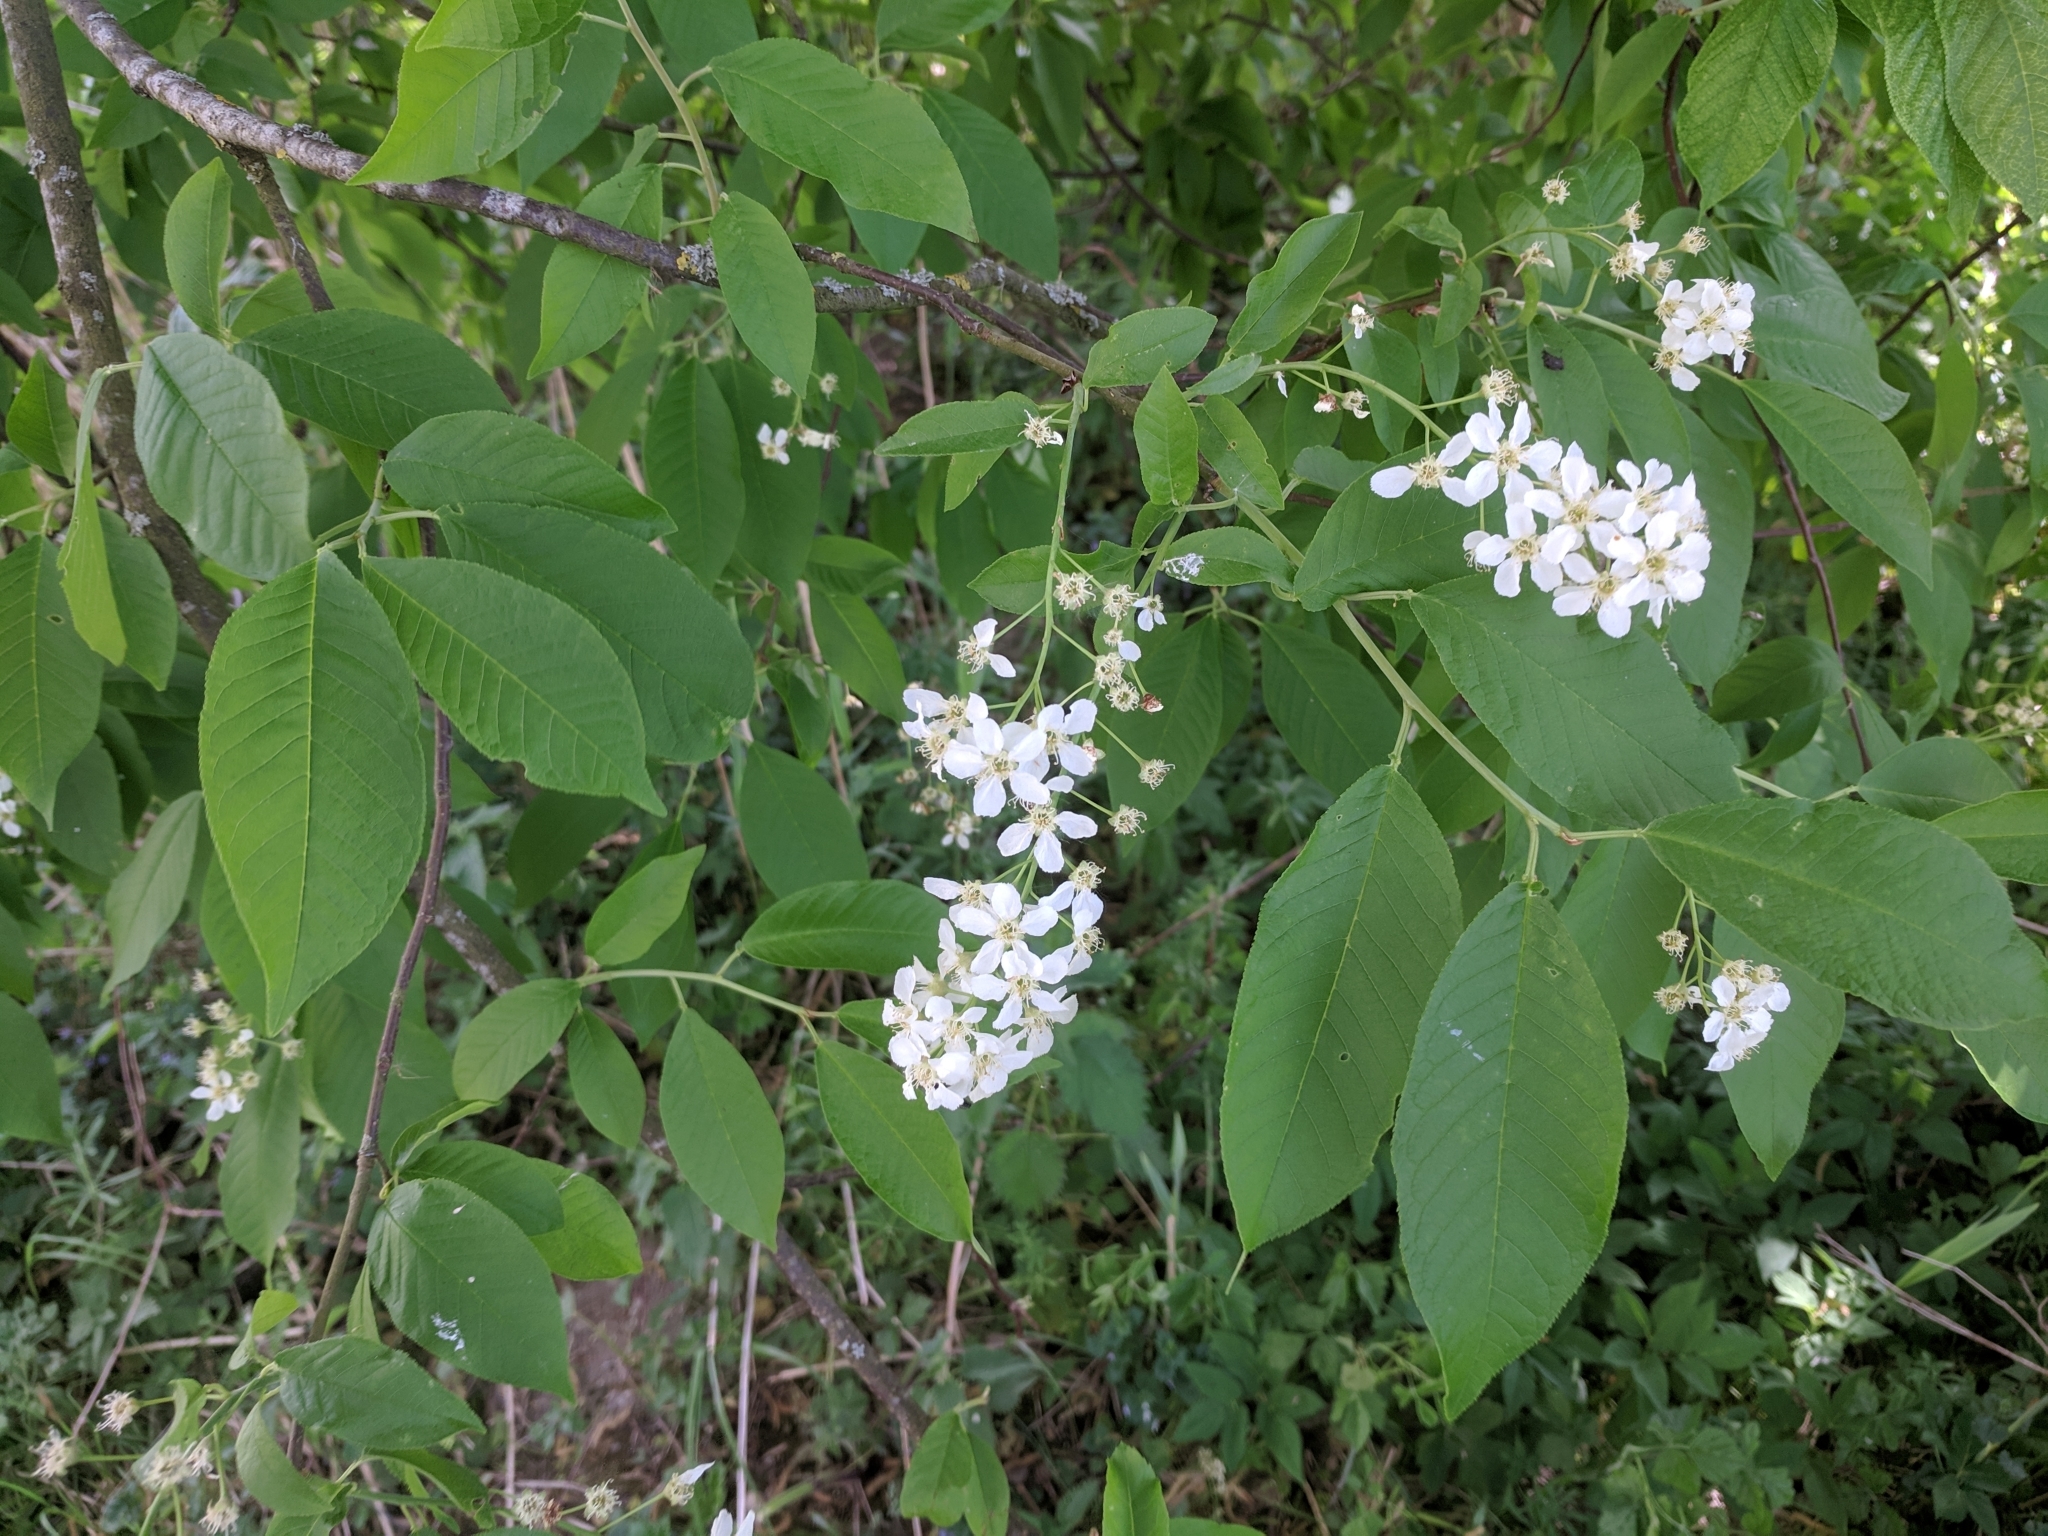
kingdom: Plantae
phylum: Tracheophyta
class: Magnoliopsida
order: Rosales
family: Rosaceae
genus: Prunus
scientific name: Prunus padus
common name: Bird cherry
